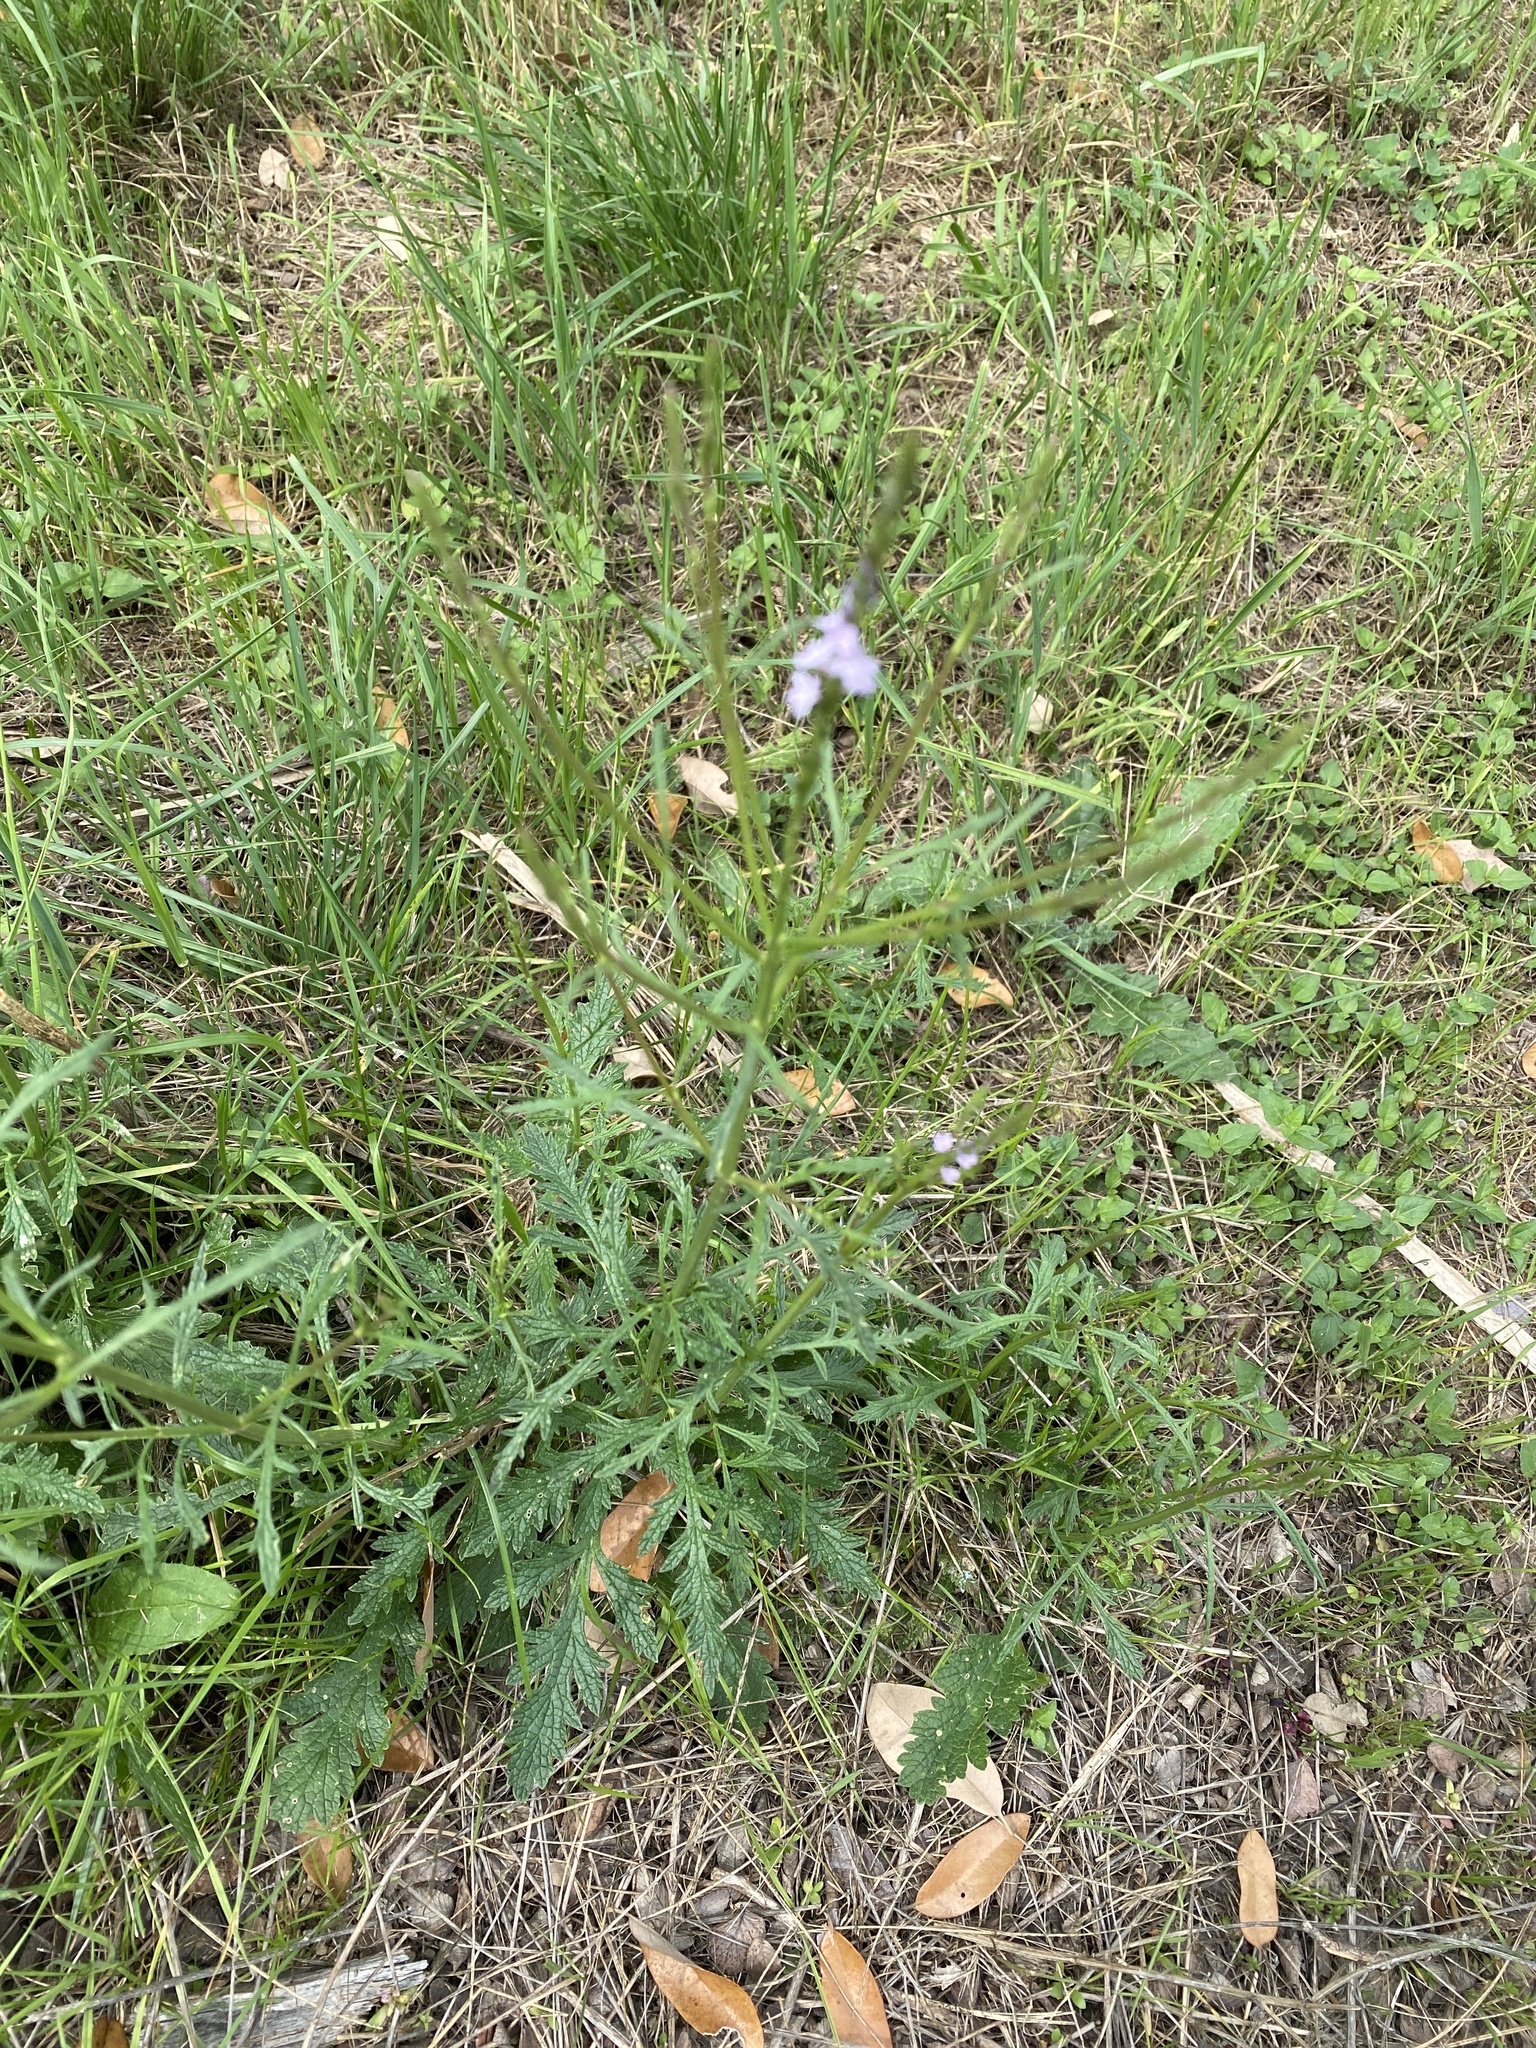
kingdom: Plantae
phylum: Tracheophyta
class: Magnoliopsida
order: Lamiales
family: Verbenaceae
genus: Verbena
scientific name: Verbena halei
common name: Texas vervain
